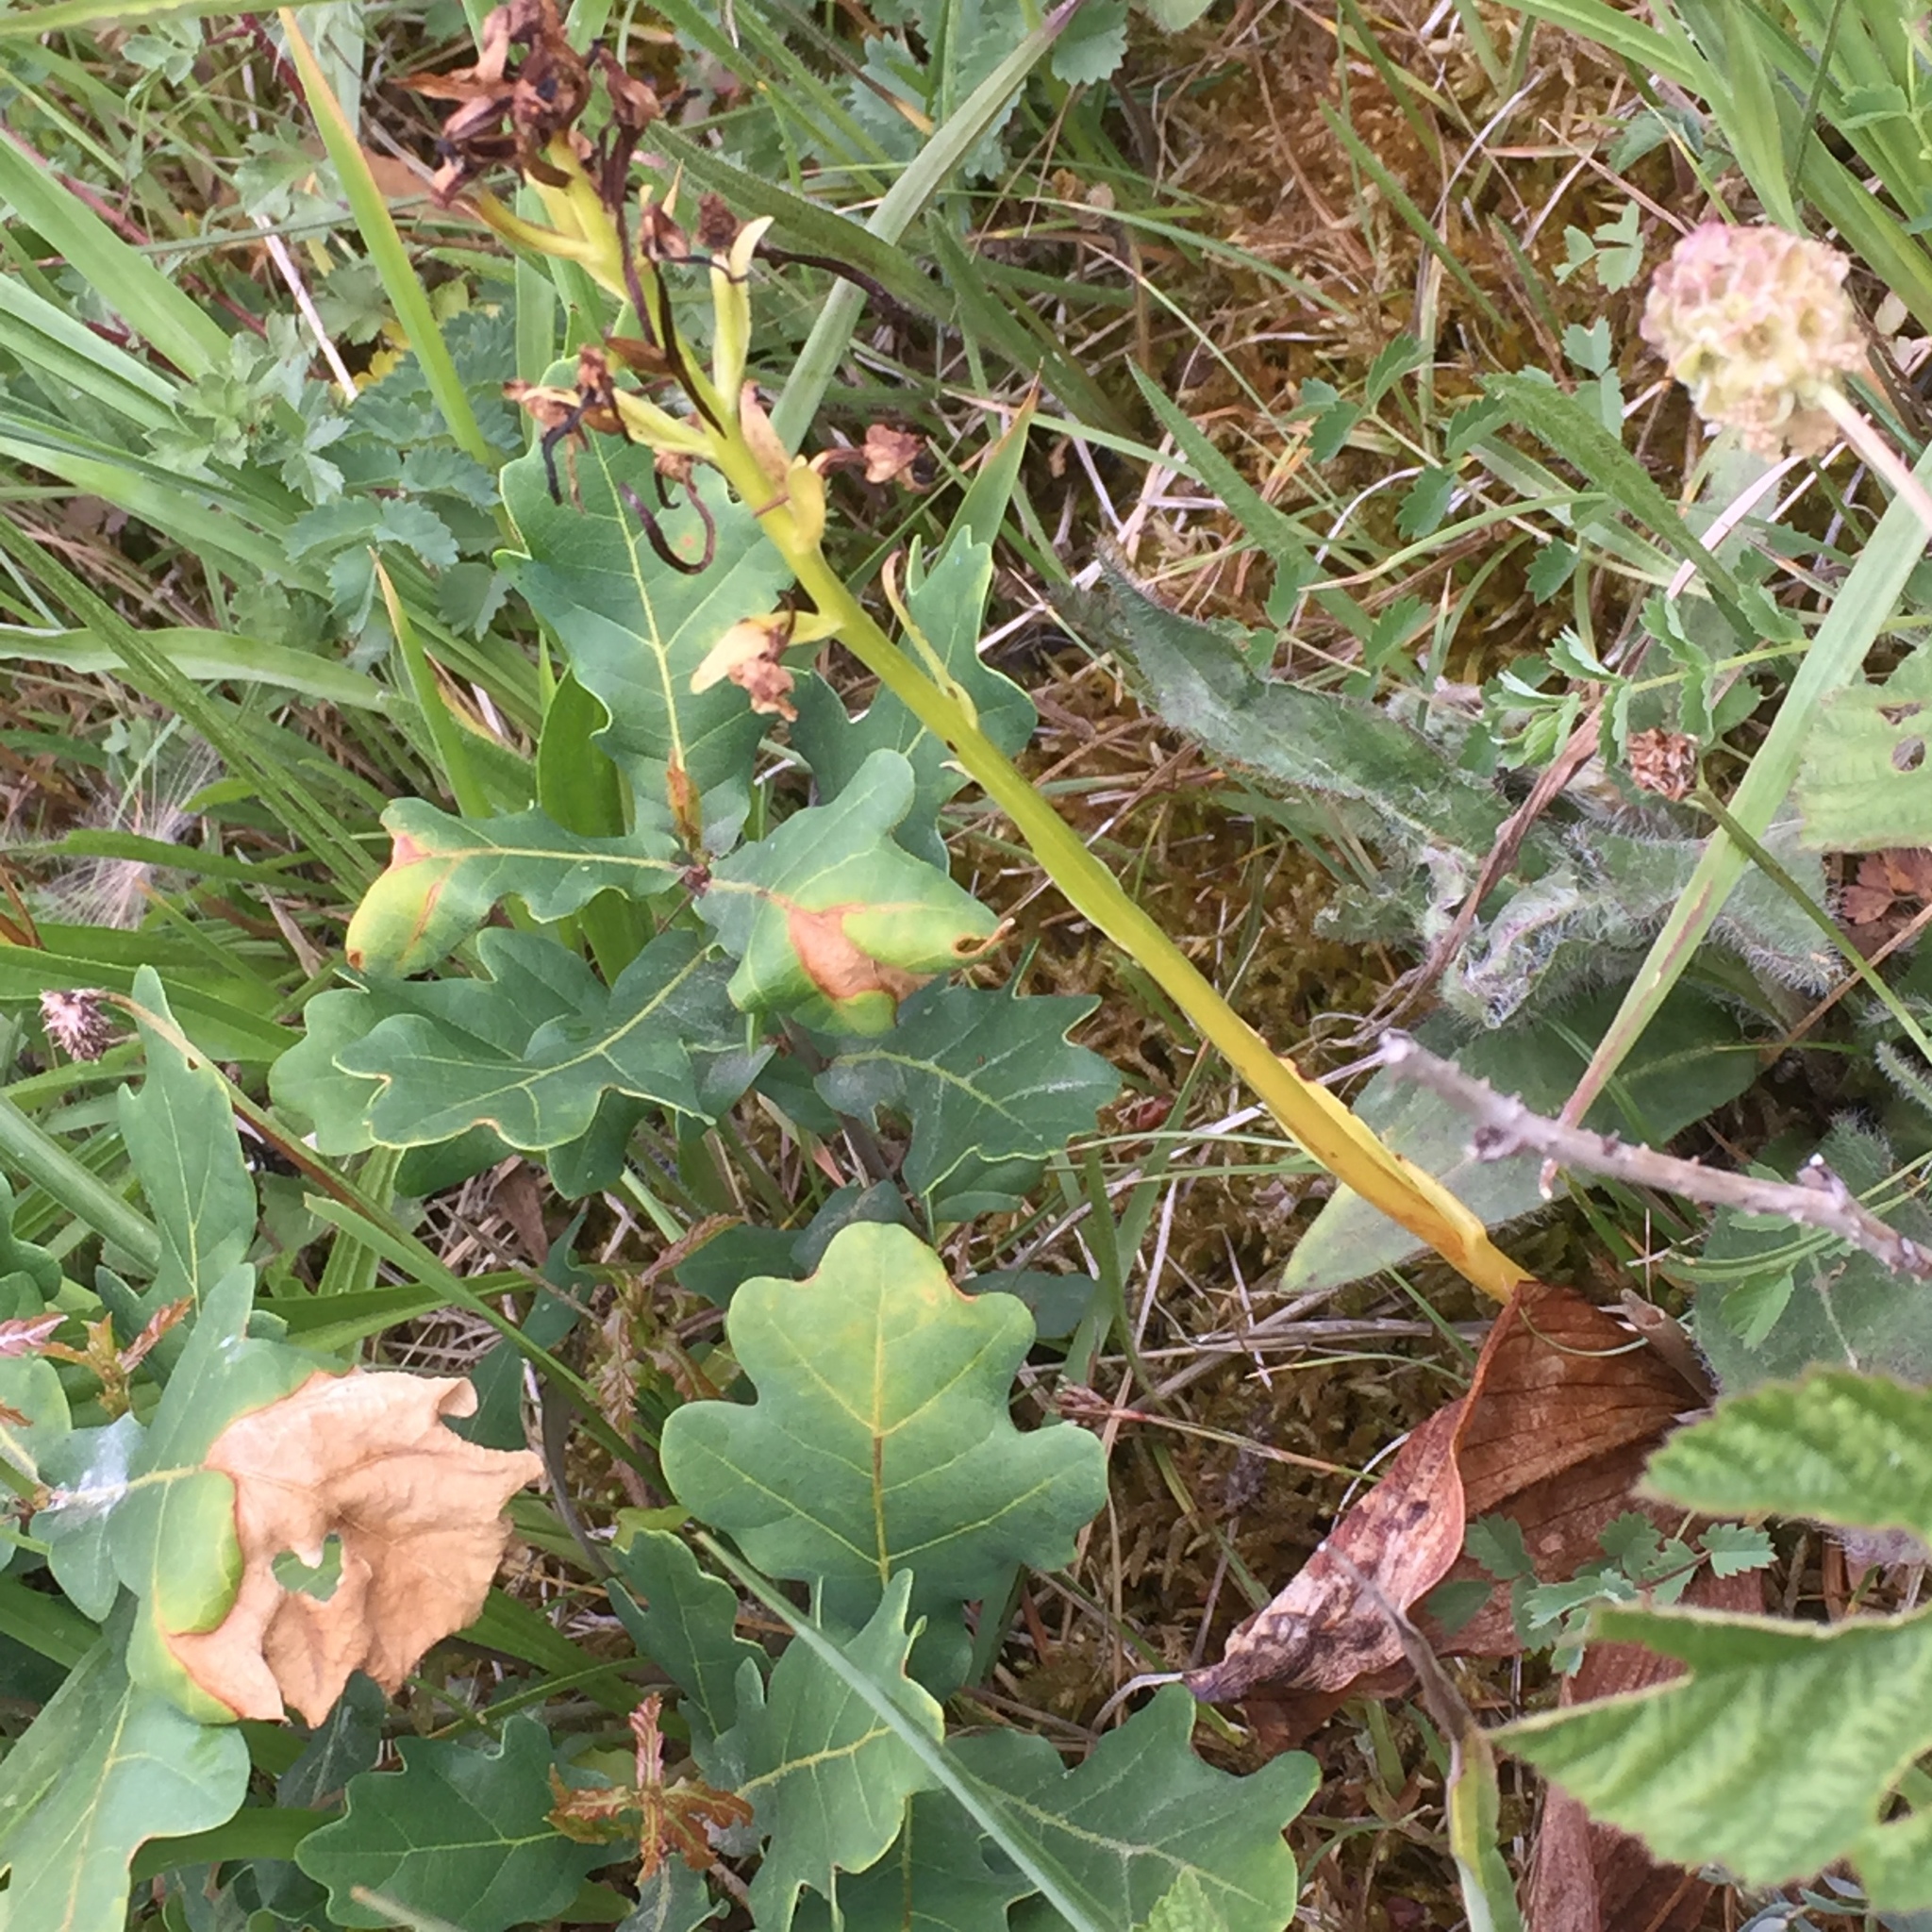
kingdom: Plantae
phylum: Tracheophyta
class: Liliopsida
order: Asparagales
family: Orchidaceae
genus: Platanthera
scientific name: Platanthera chlorantha
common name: Greater butterfly-orchid
